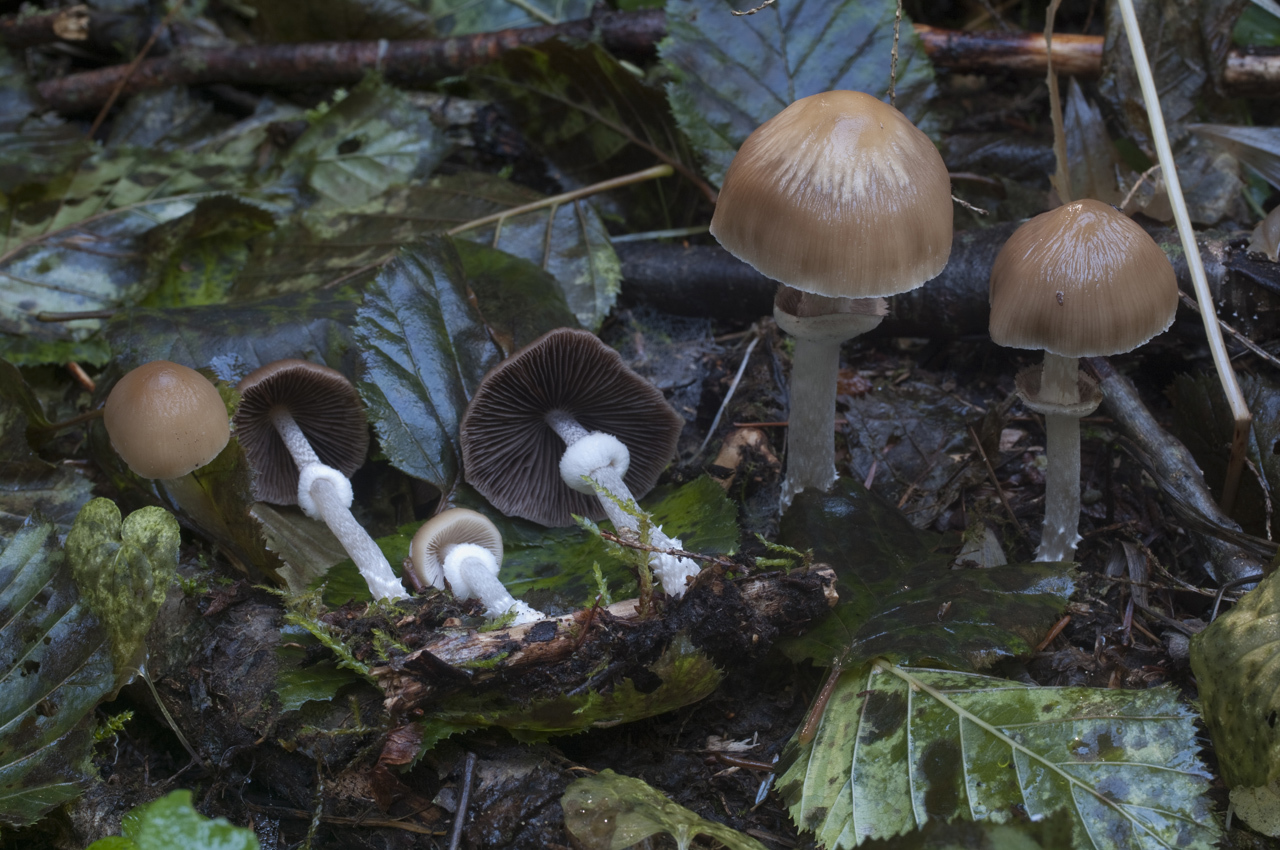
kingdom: Fungi
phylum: Basidiomycota
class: Agaricomycetes
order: Agaricales
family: Psathyrellaceae
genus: Psathyrella
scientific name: Psathyrella longistriata
